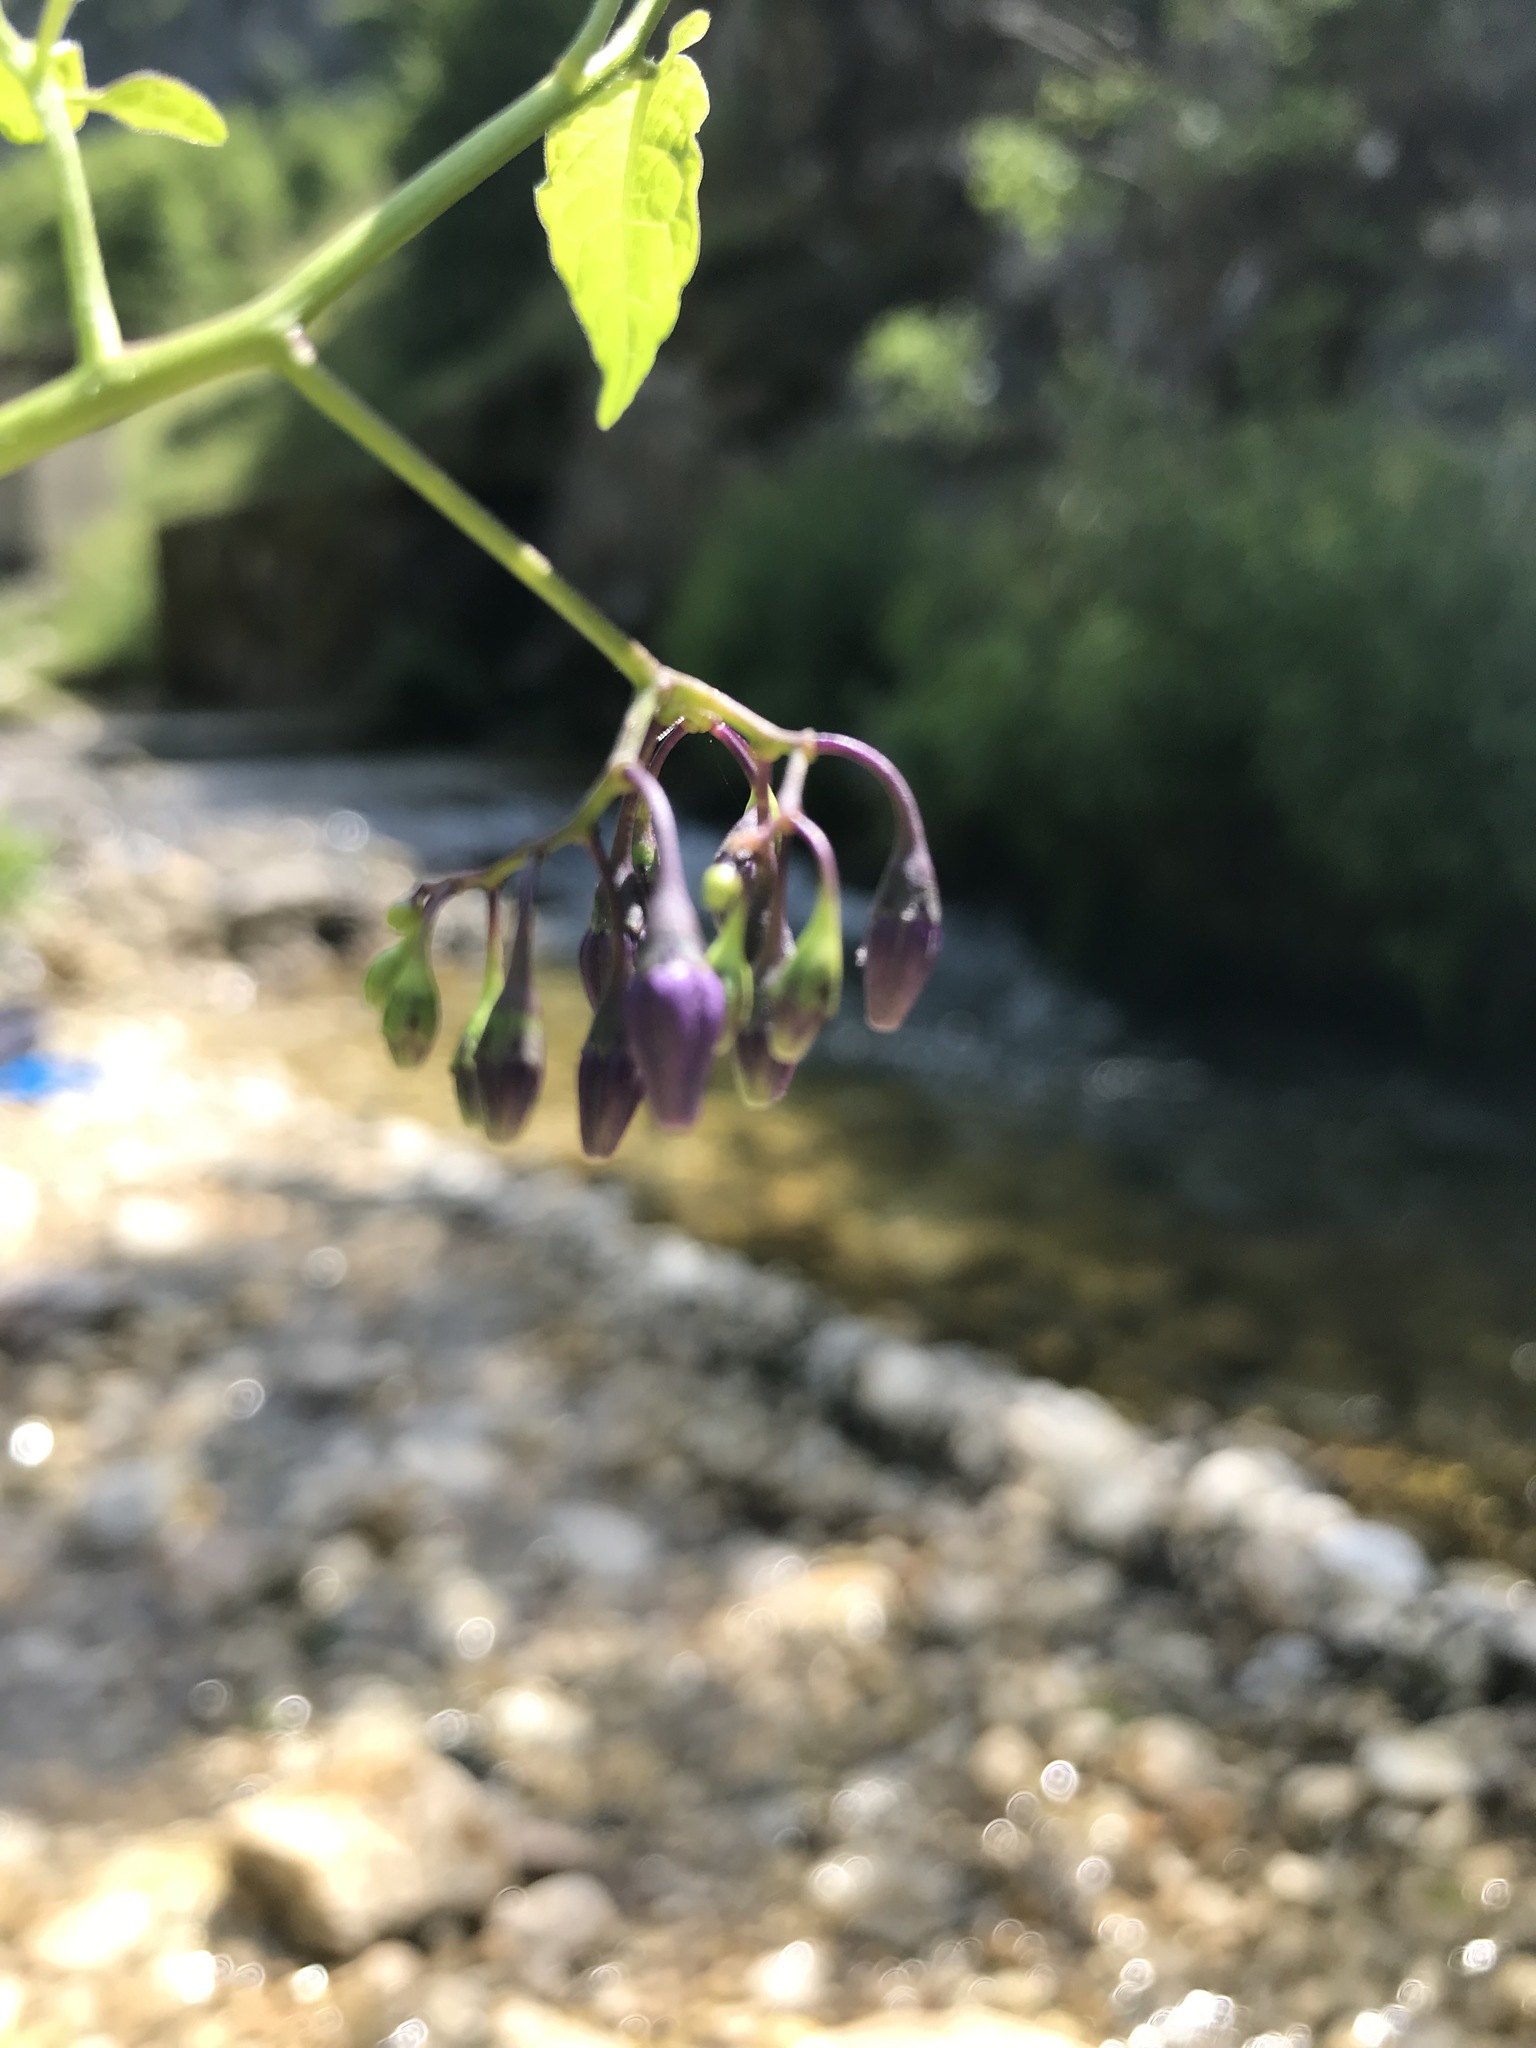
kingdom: Plantae
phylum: Tracheophyta
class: Magnoliopsida
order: Solanales
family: Solanaceae
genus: Solanum
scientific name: Solanum dulcamara
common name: Climbing nightshade
